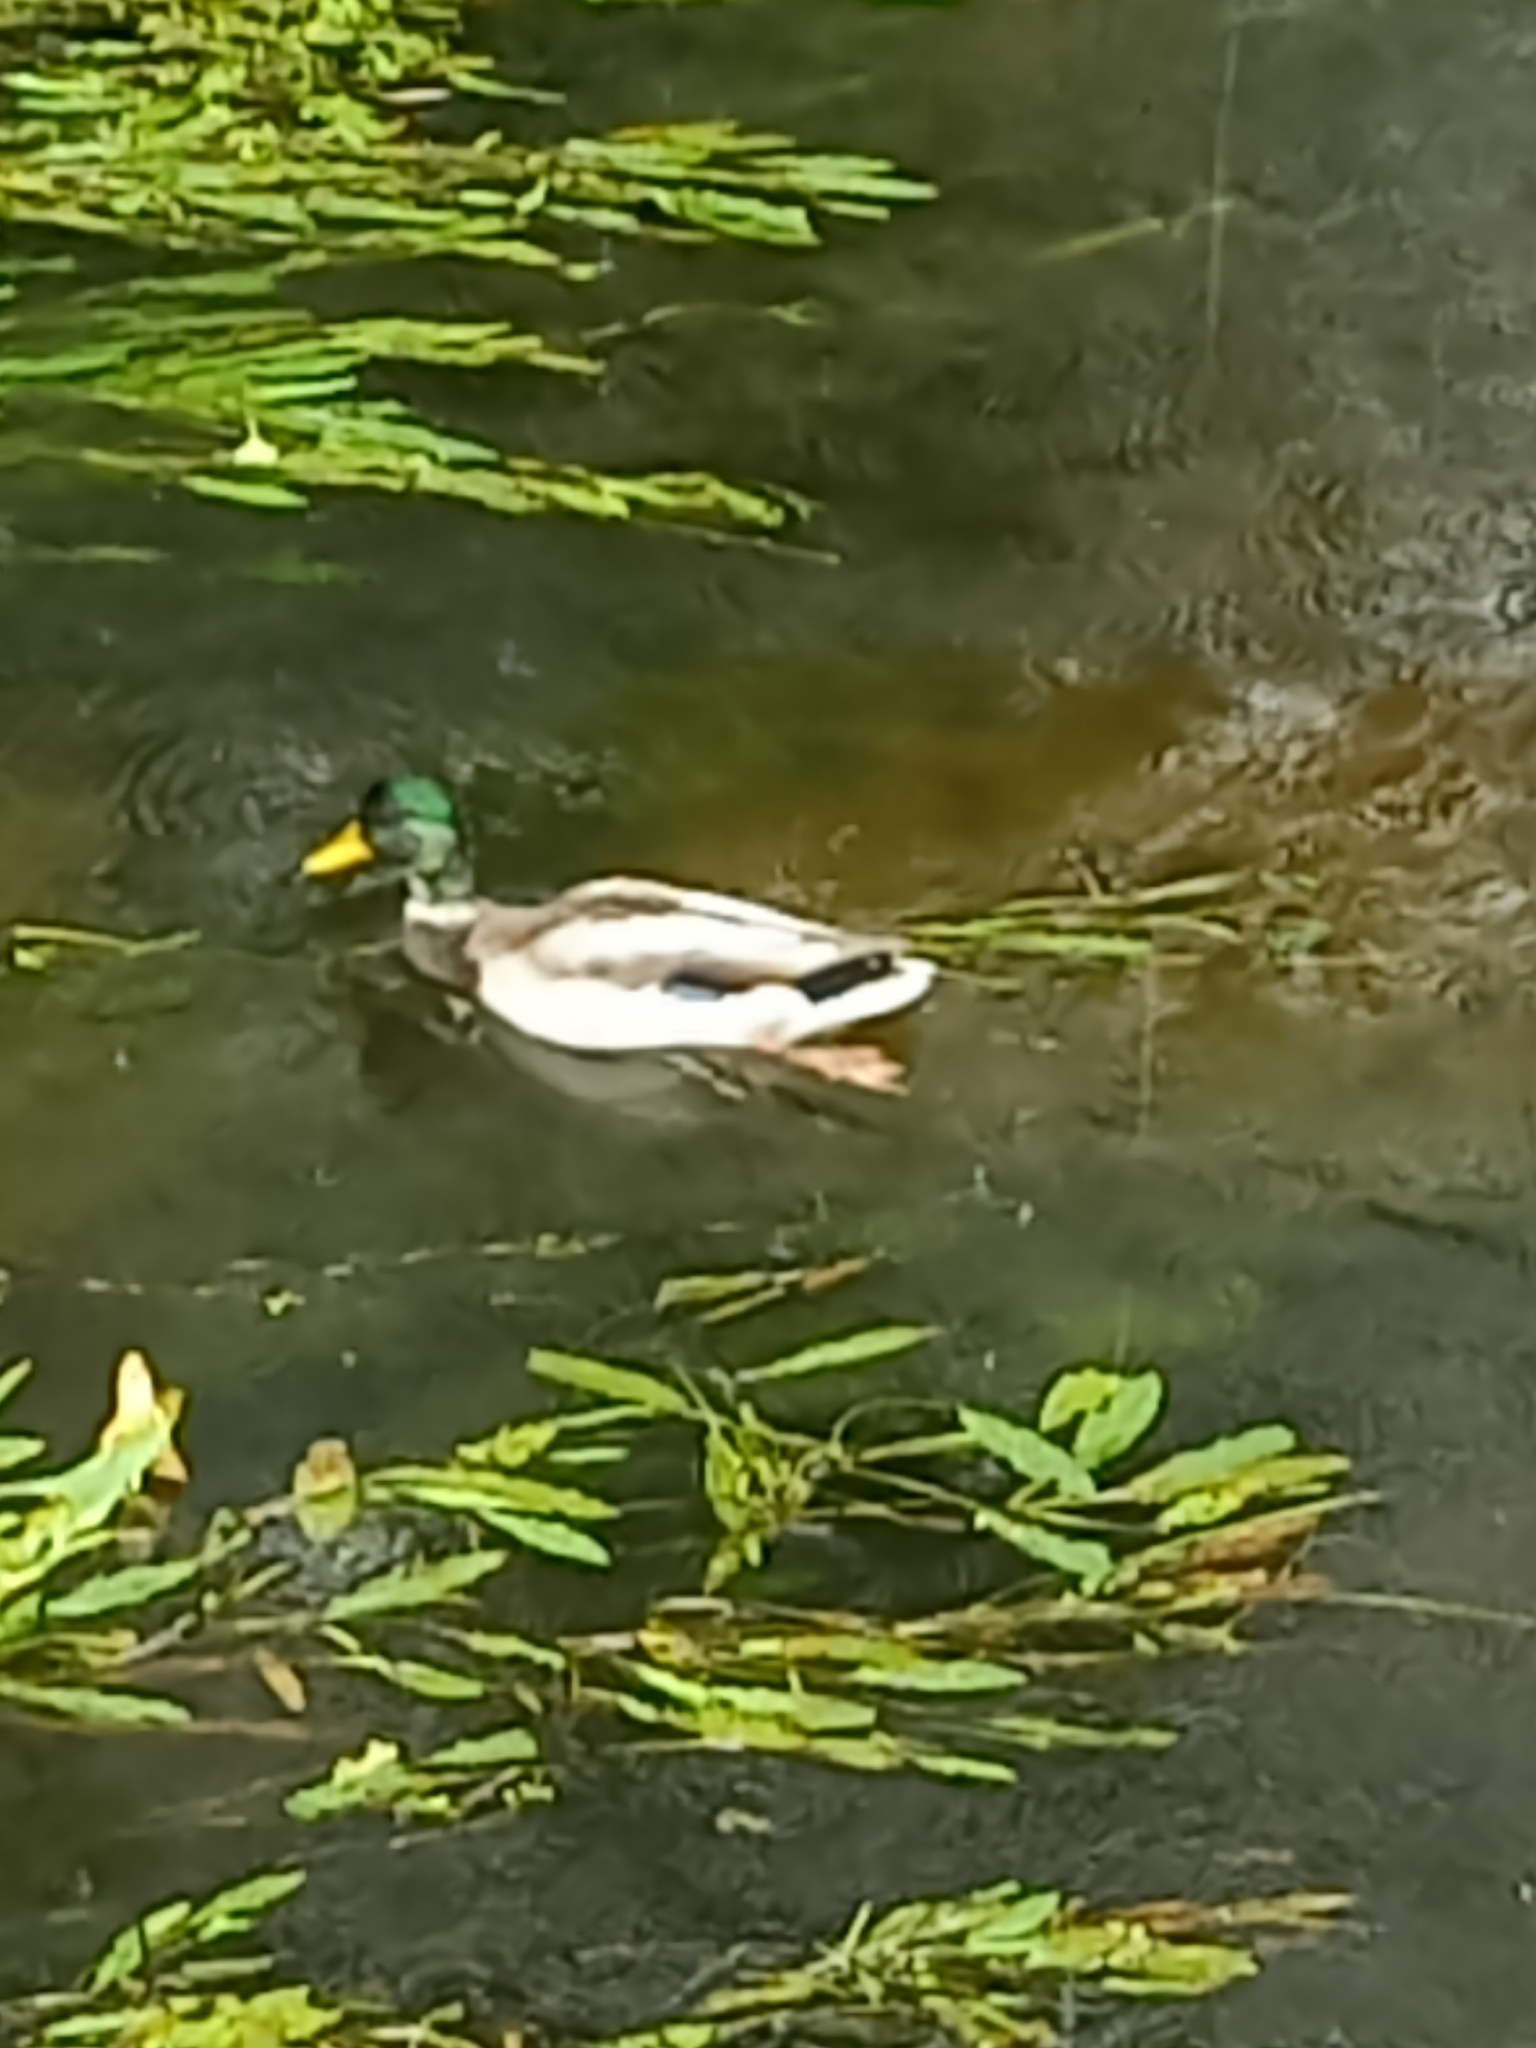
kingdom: Animalia
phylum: Chordata
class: Aves
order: Anseriformes
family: Anatidae
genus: Anas
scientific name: Anas platyrhynchos
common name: Mallard
